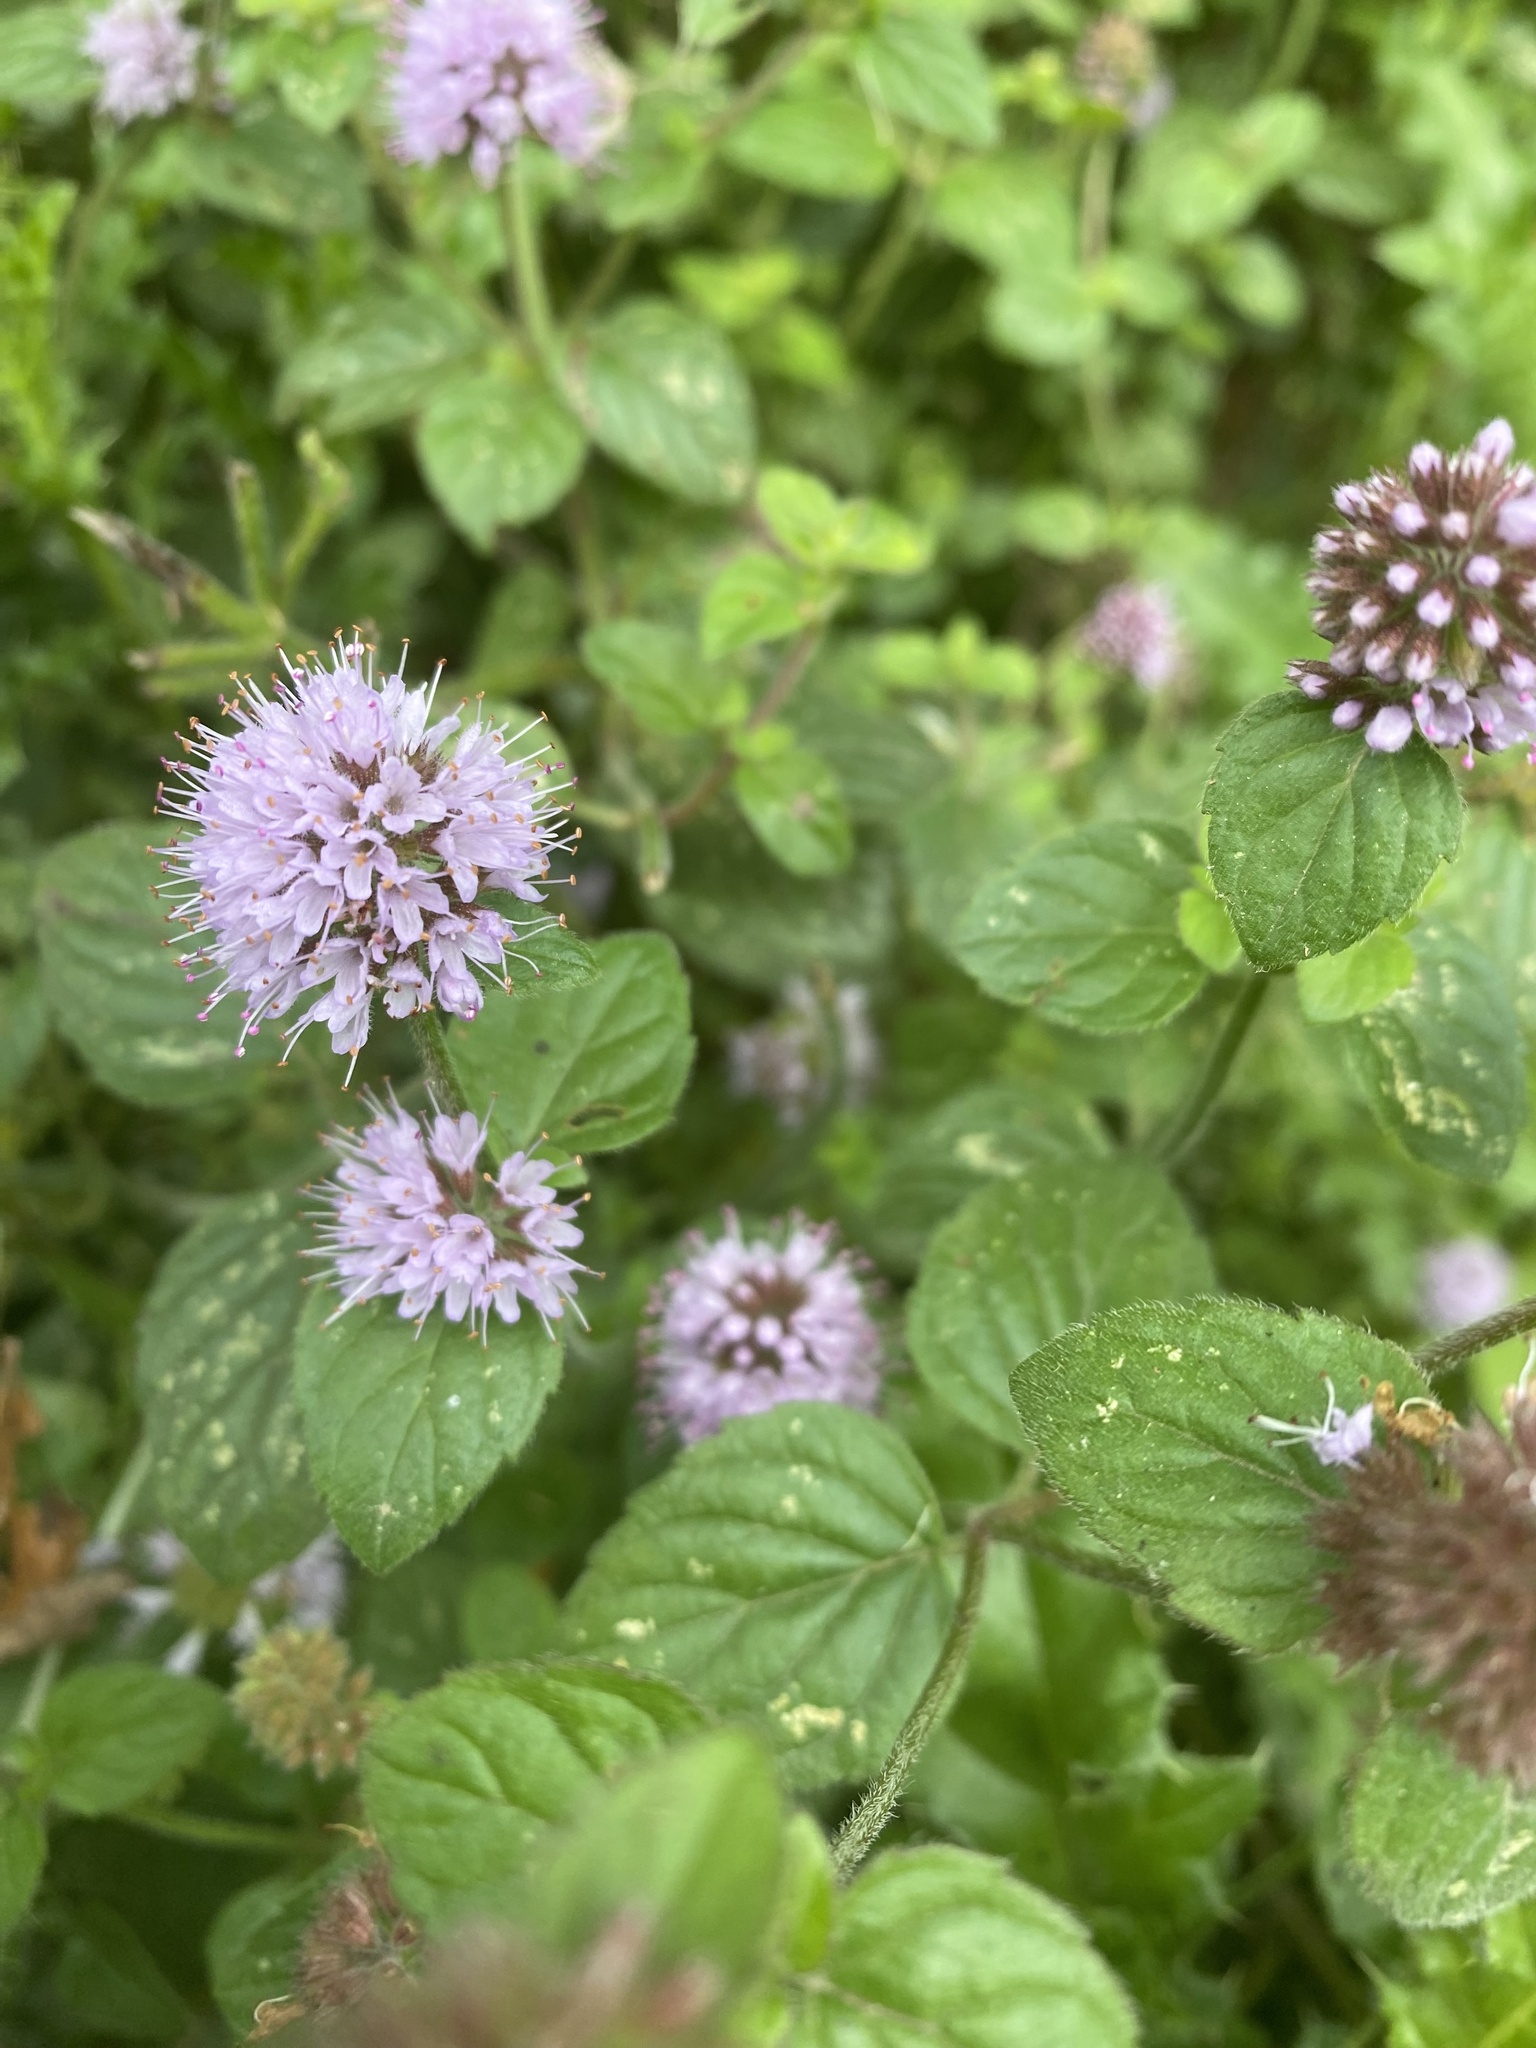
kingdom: Plantae
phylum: Tracheophyta
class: Magnoliopsida
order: Lamiales
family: Lamiaceae
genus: Mentha
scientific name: Mentha aquatica
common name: Water mint
